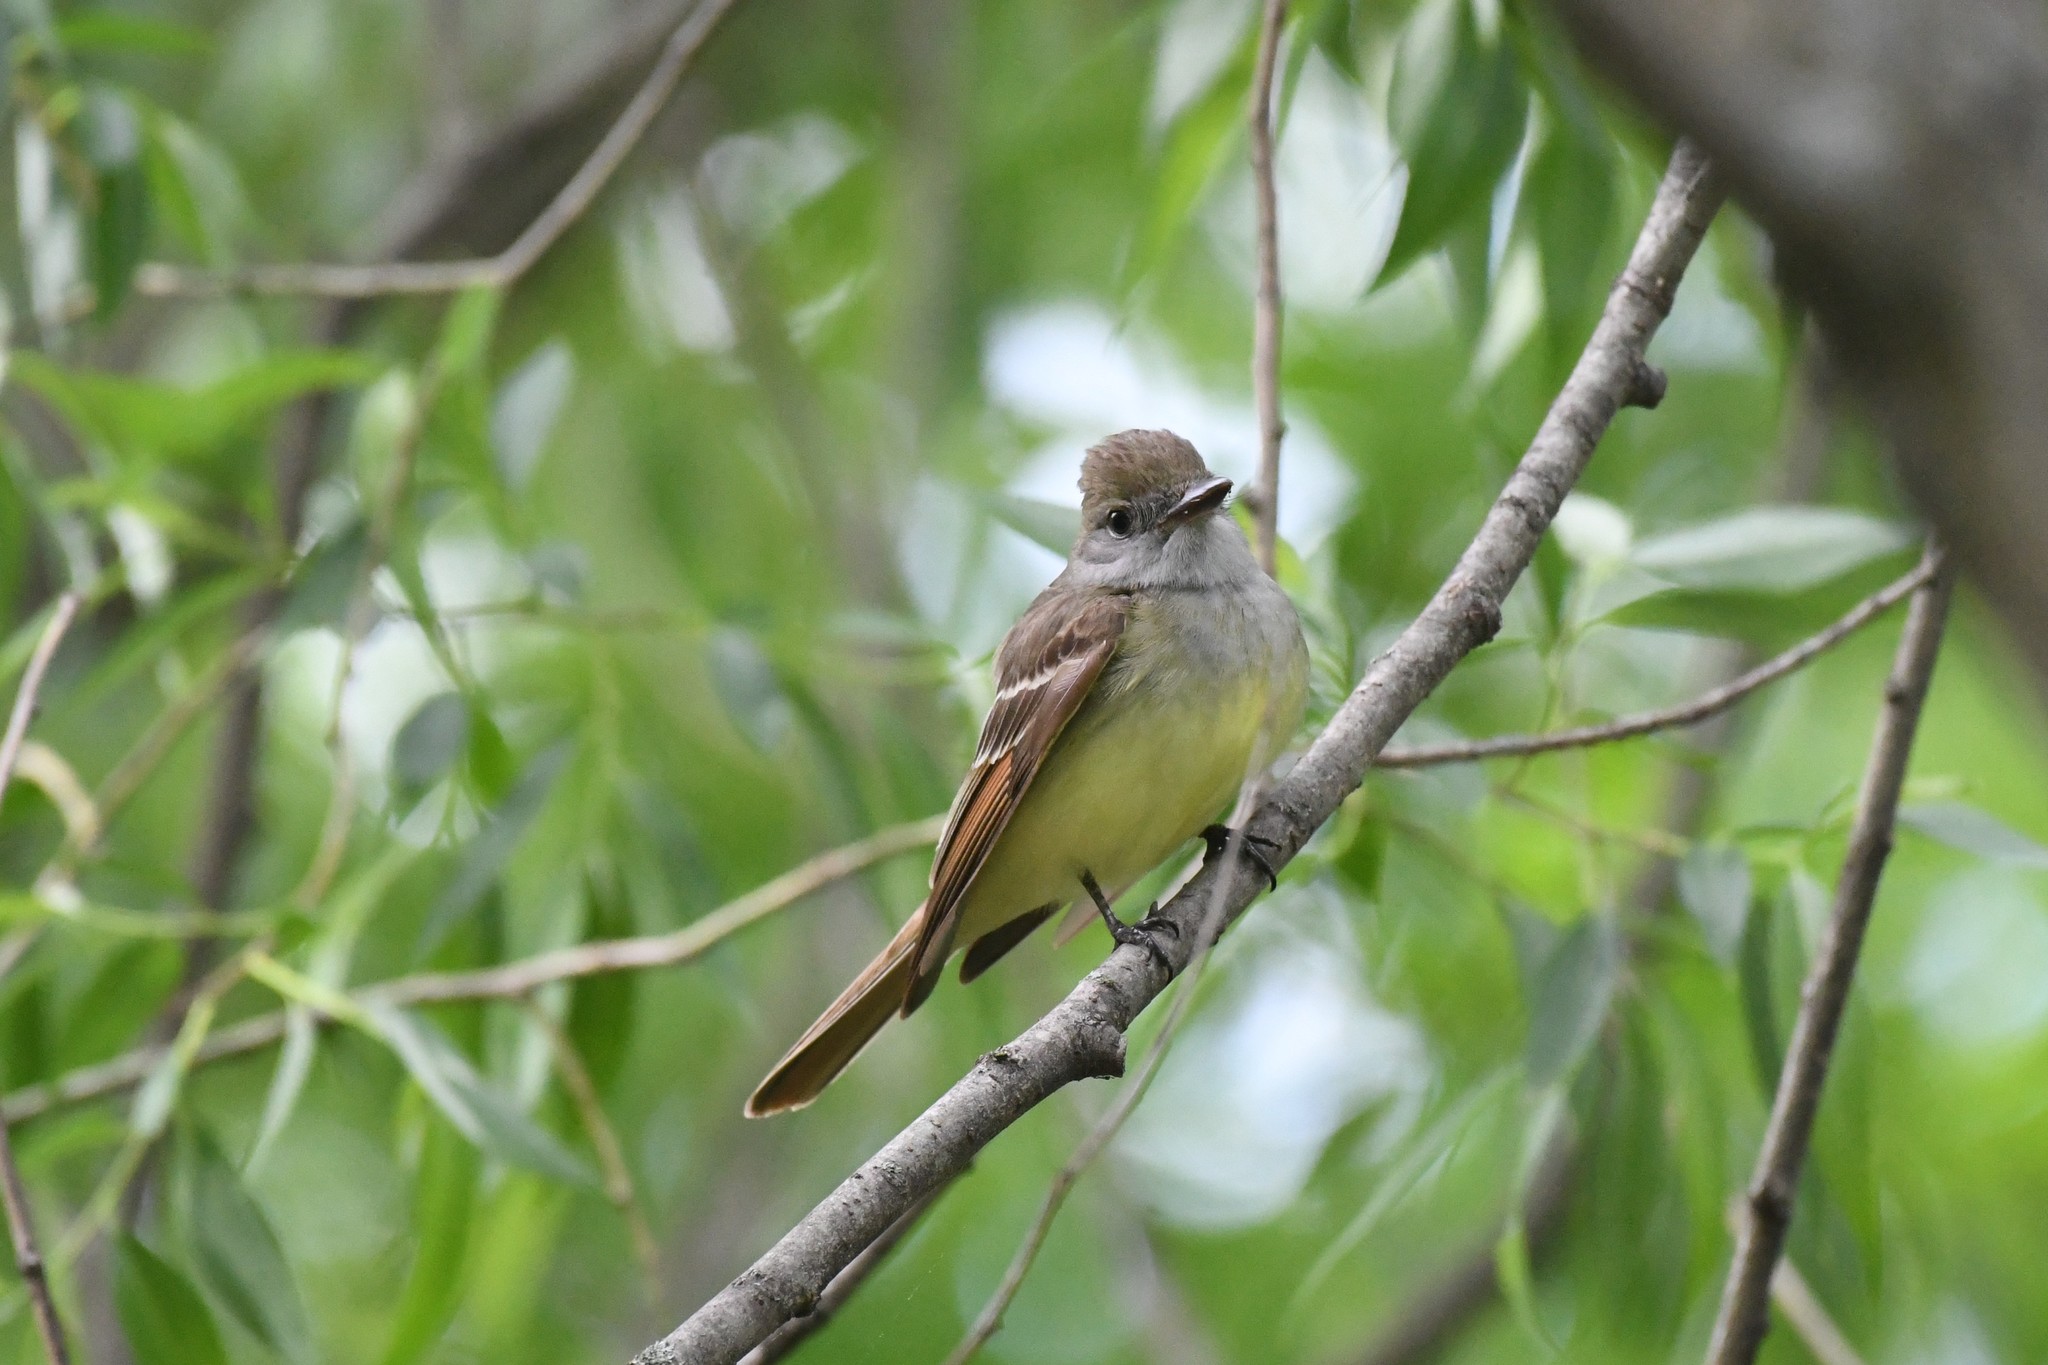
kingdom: Animalia
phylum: Chordata
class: Aves
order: Passeriformes
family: Tyrannidae
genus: Myiarchus
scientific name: Myiarchus crinitus
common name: Great crested flycatcher
